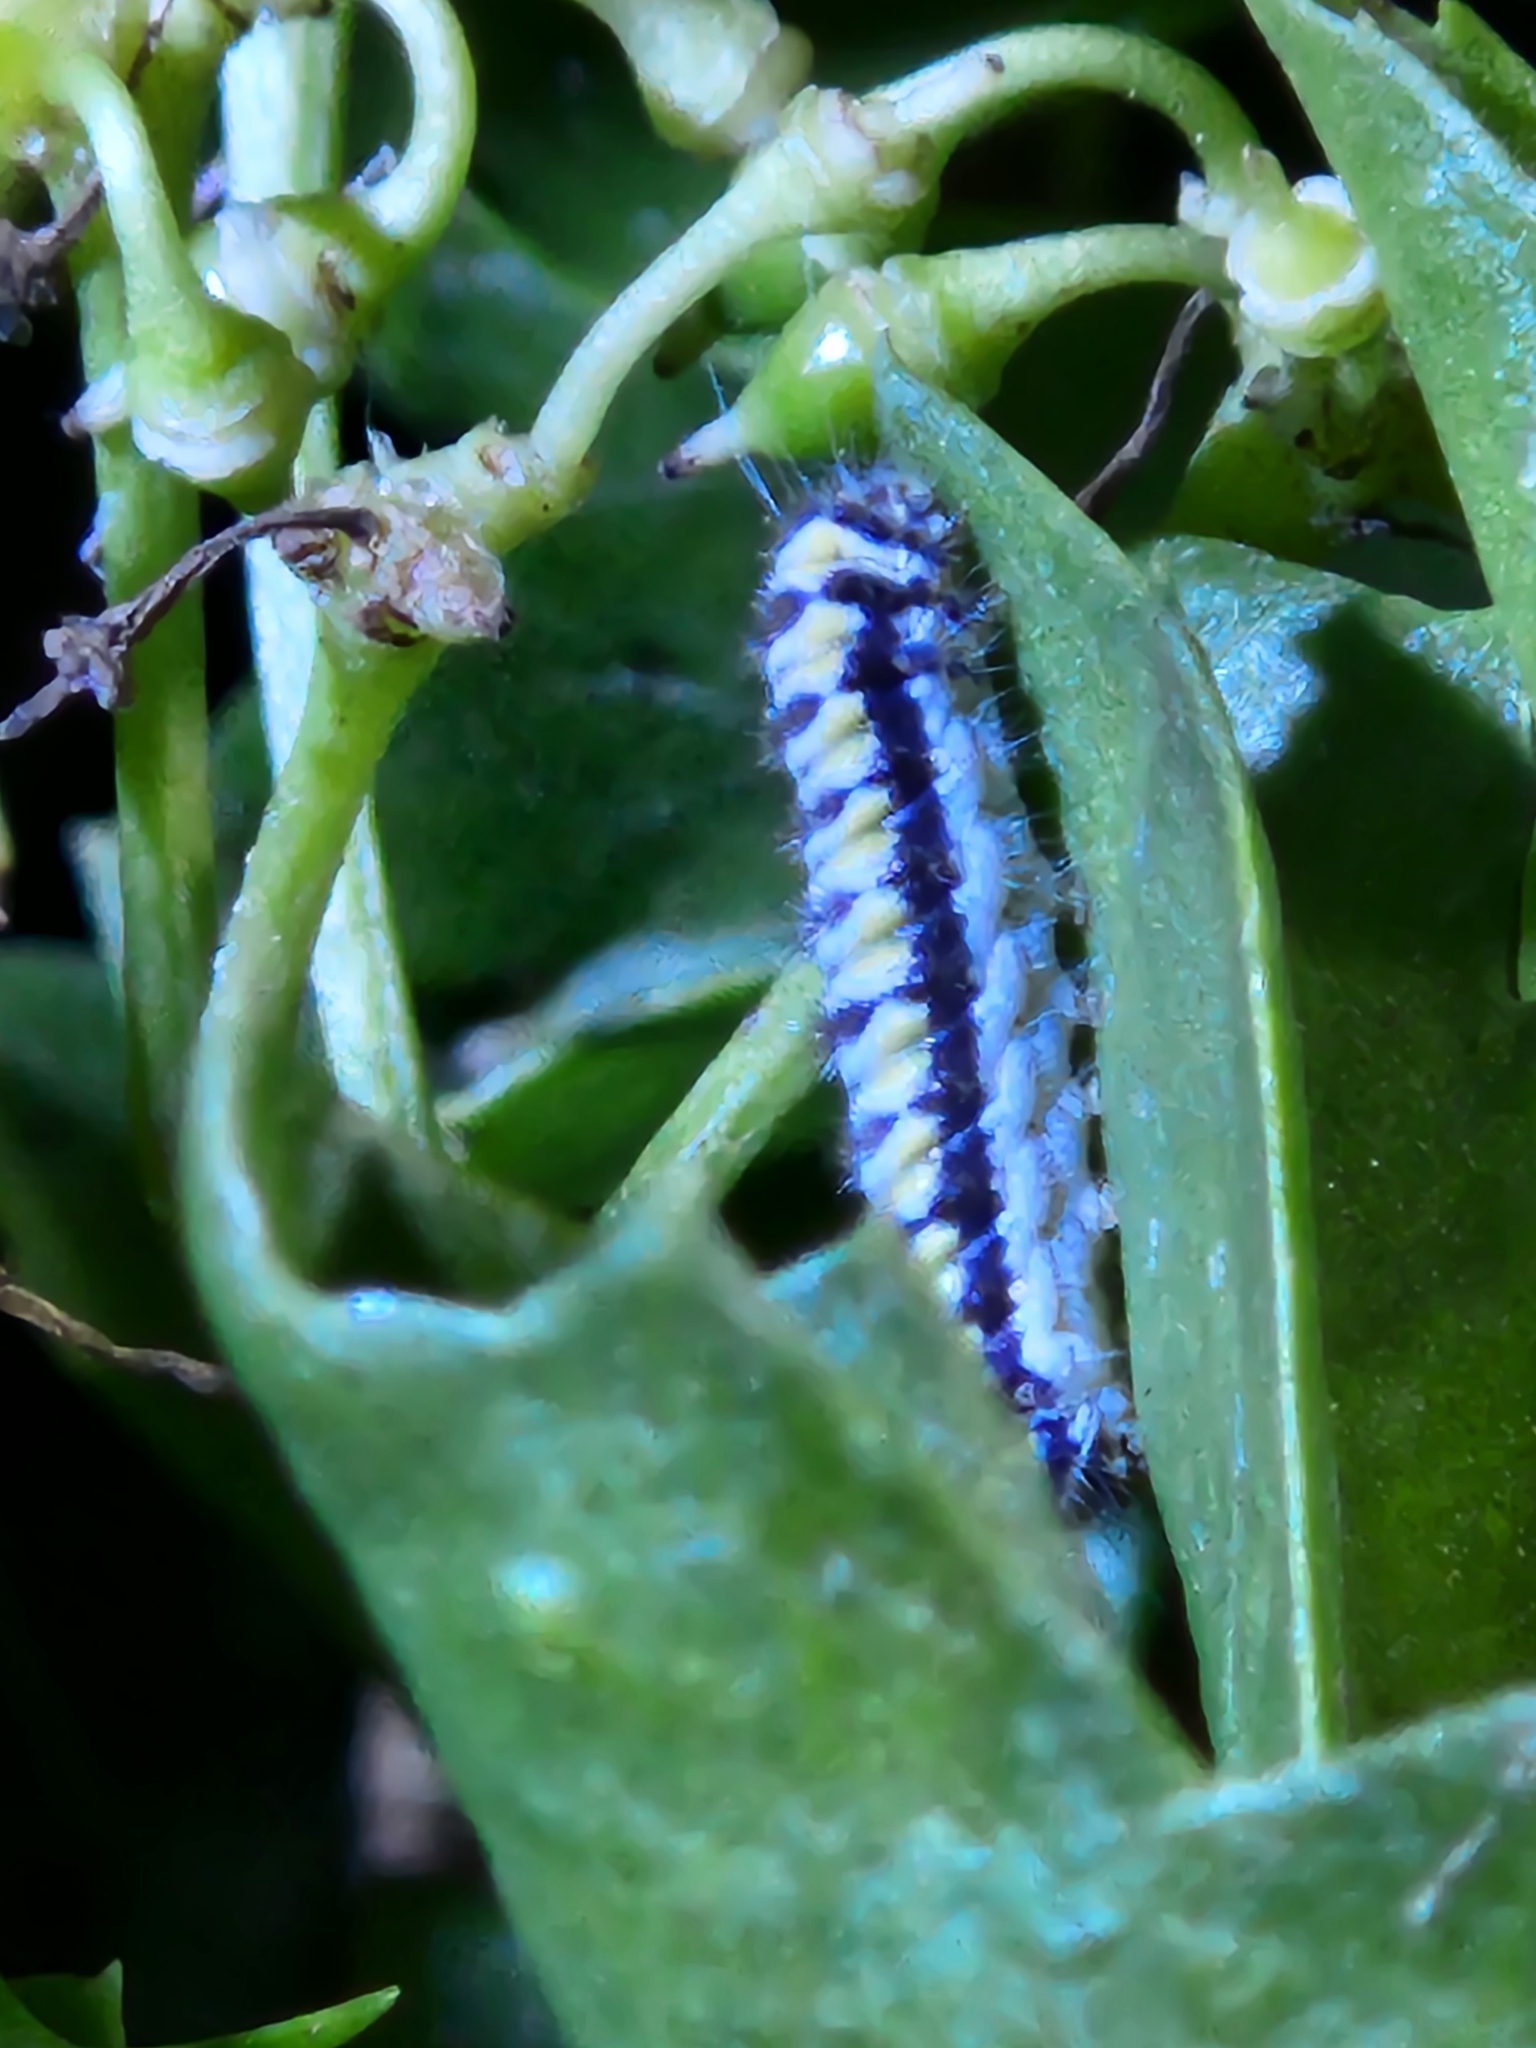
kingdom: Animalia
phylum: Arthropoda
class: Insecta
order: Lepidoptera
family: Zygaenidae
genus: Harrisina
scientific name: Harrisina coracina
